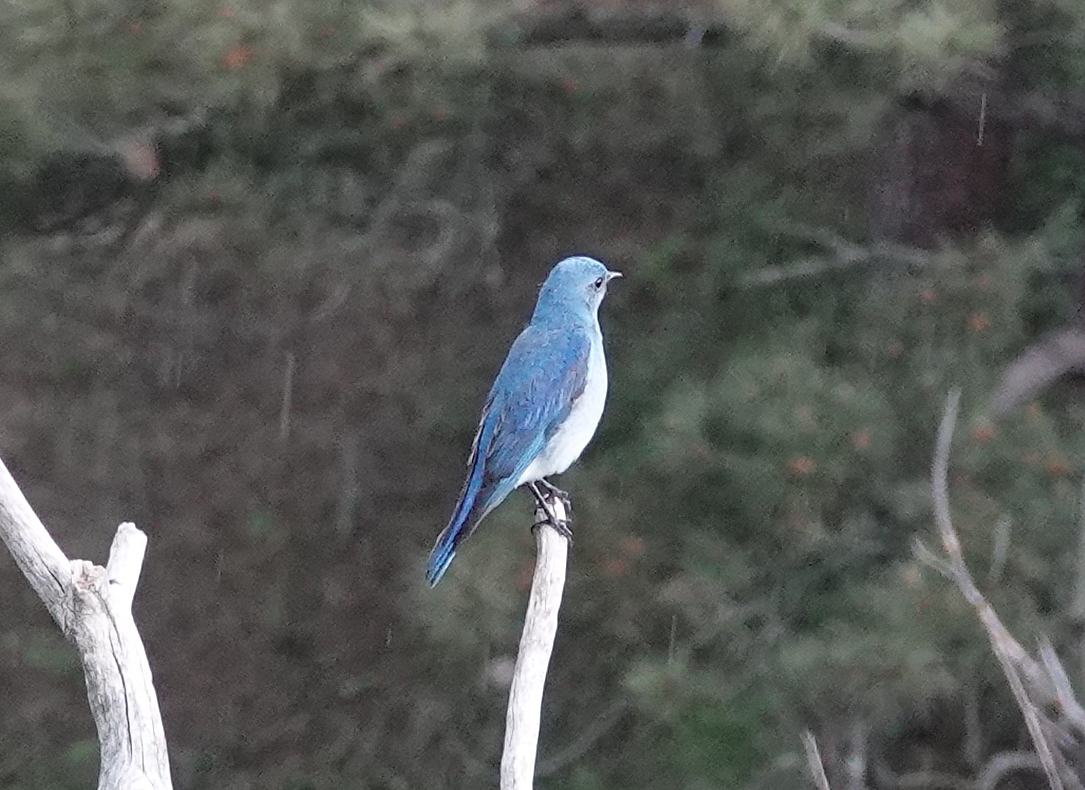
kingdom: Animalia
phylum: Chordata
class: Aves
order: Passeriformes
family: Turdidae
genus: Sialia
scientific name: Sialia currucoides
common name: Mountain bluebird
